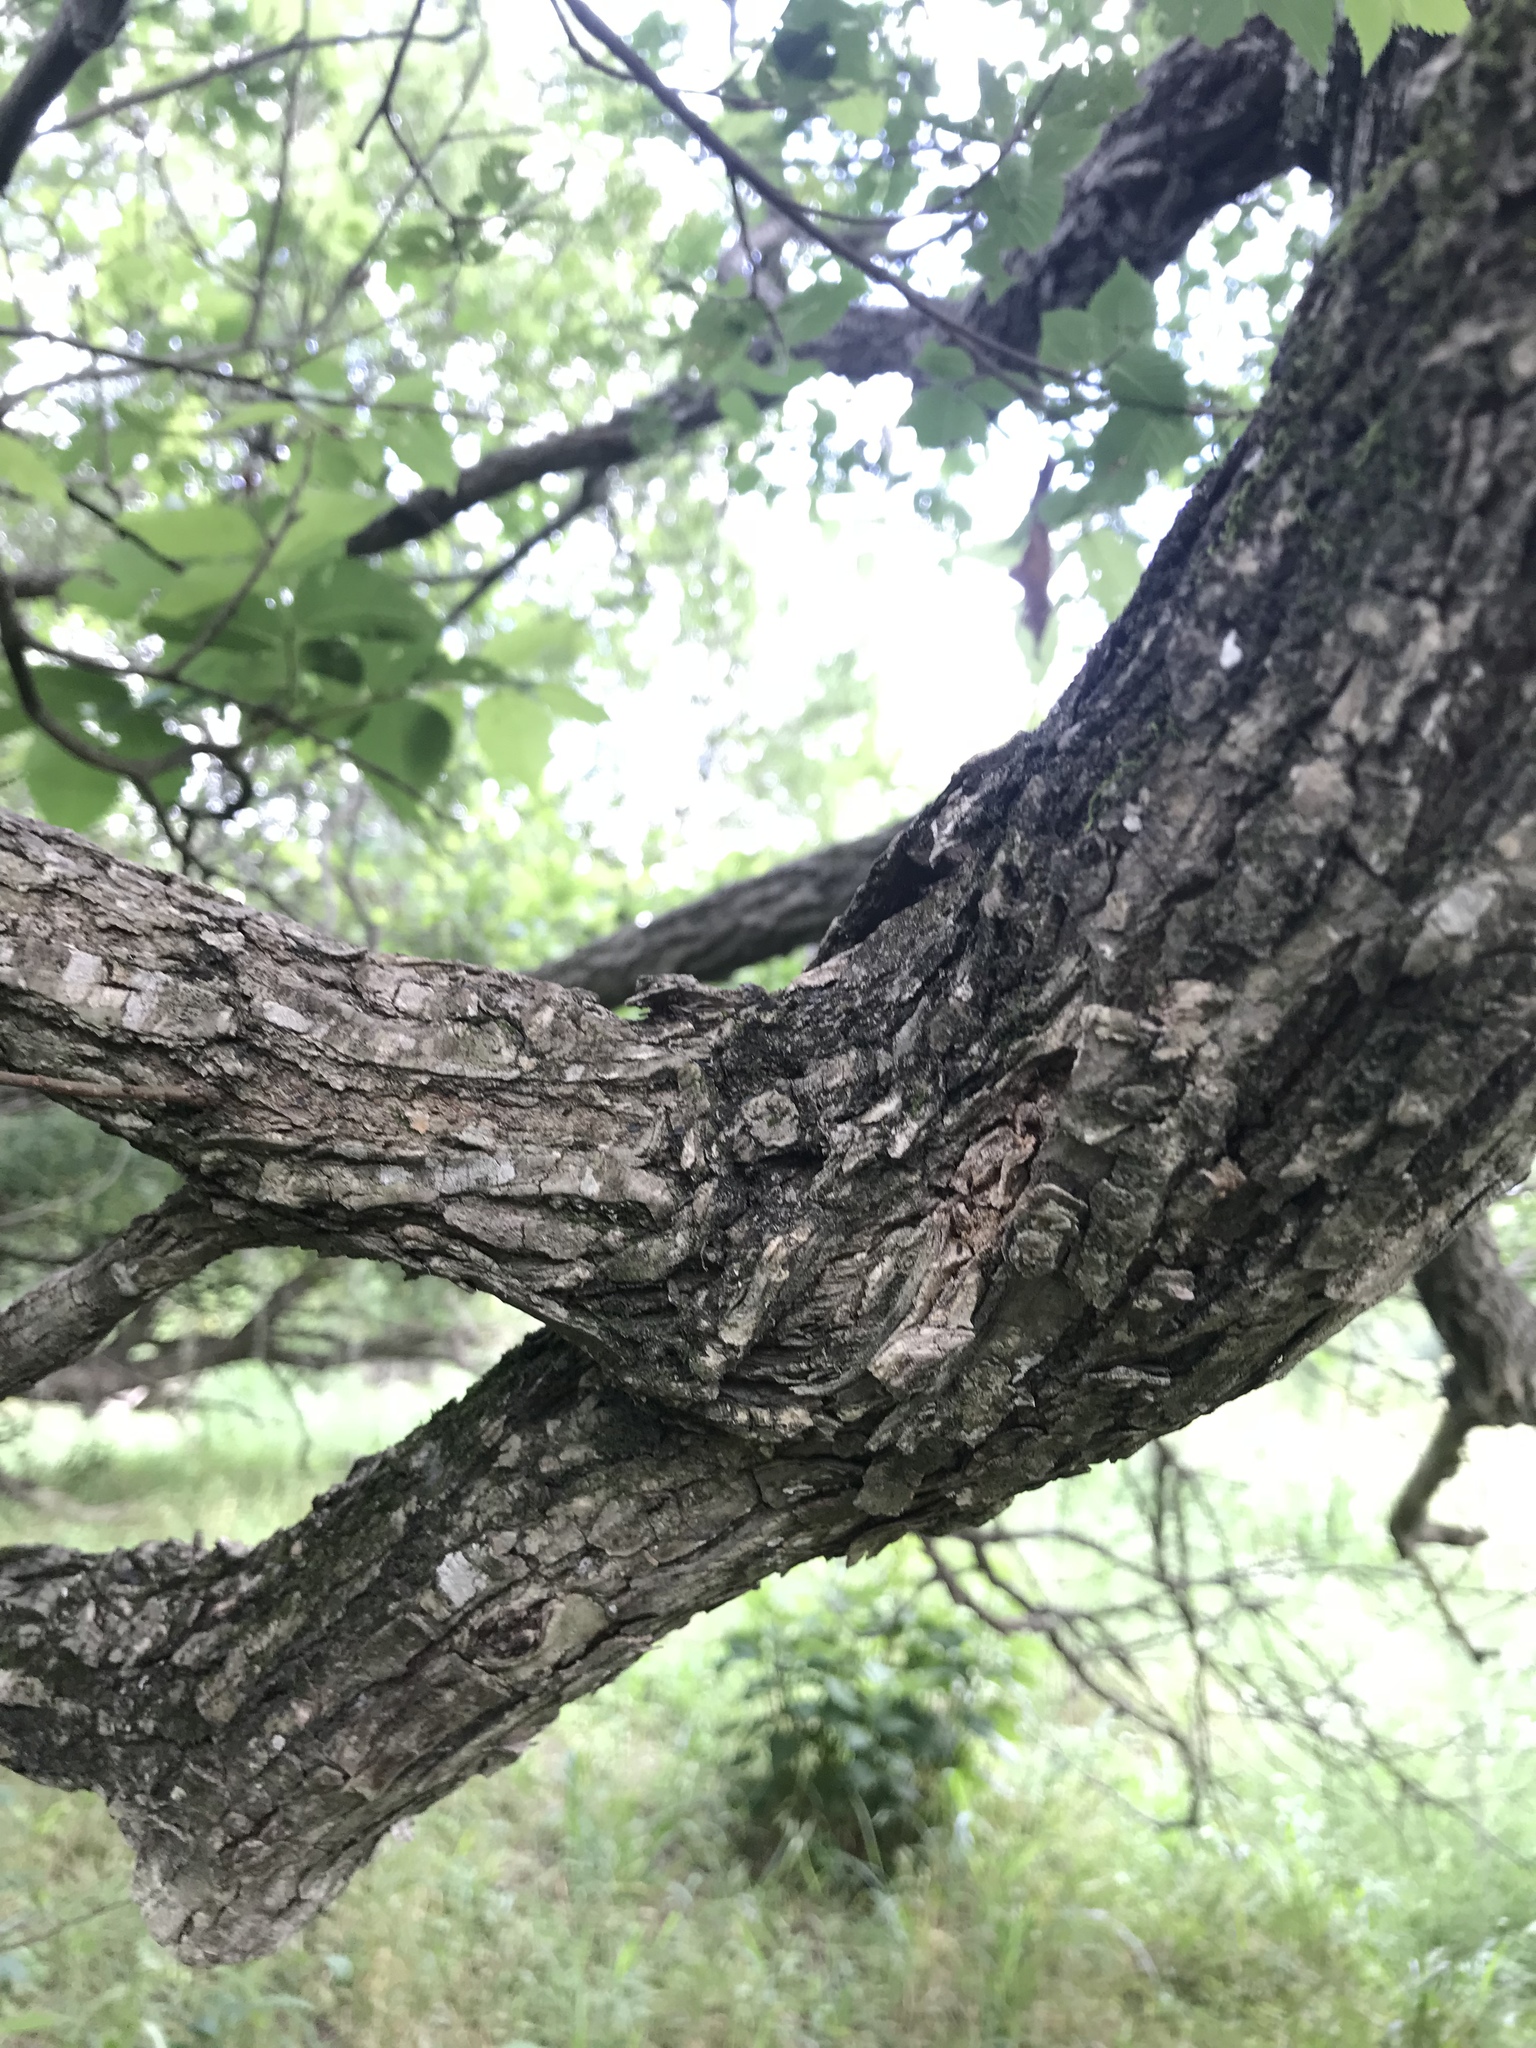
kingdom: Plantae
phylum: Tracheophyta
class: Magnoliopsida
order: Rosales
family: Ulmaceae
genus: Ulmus
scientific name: Ulmus americana
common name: American elm
